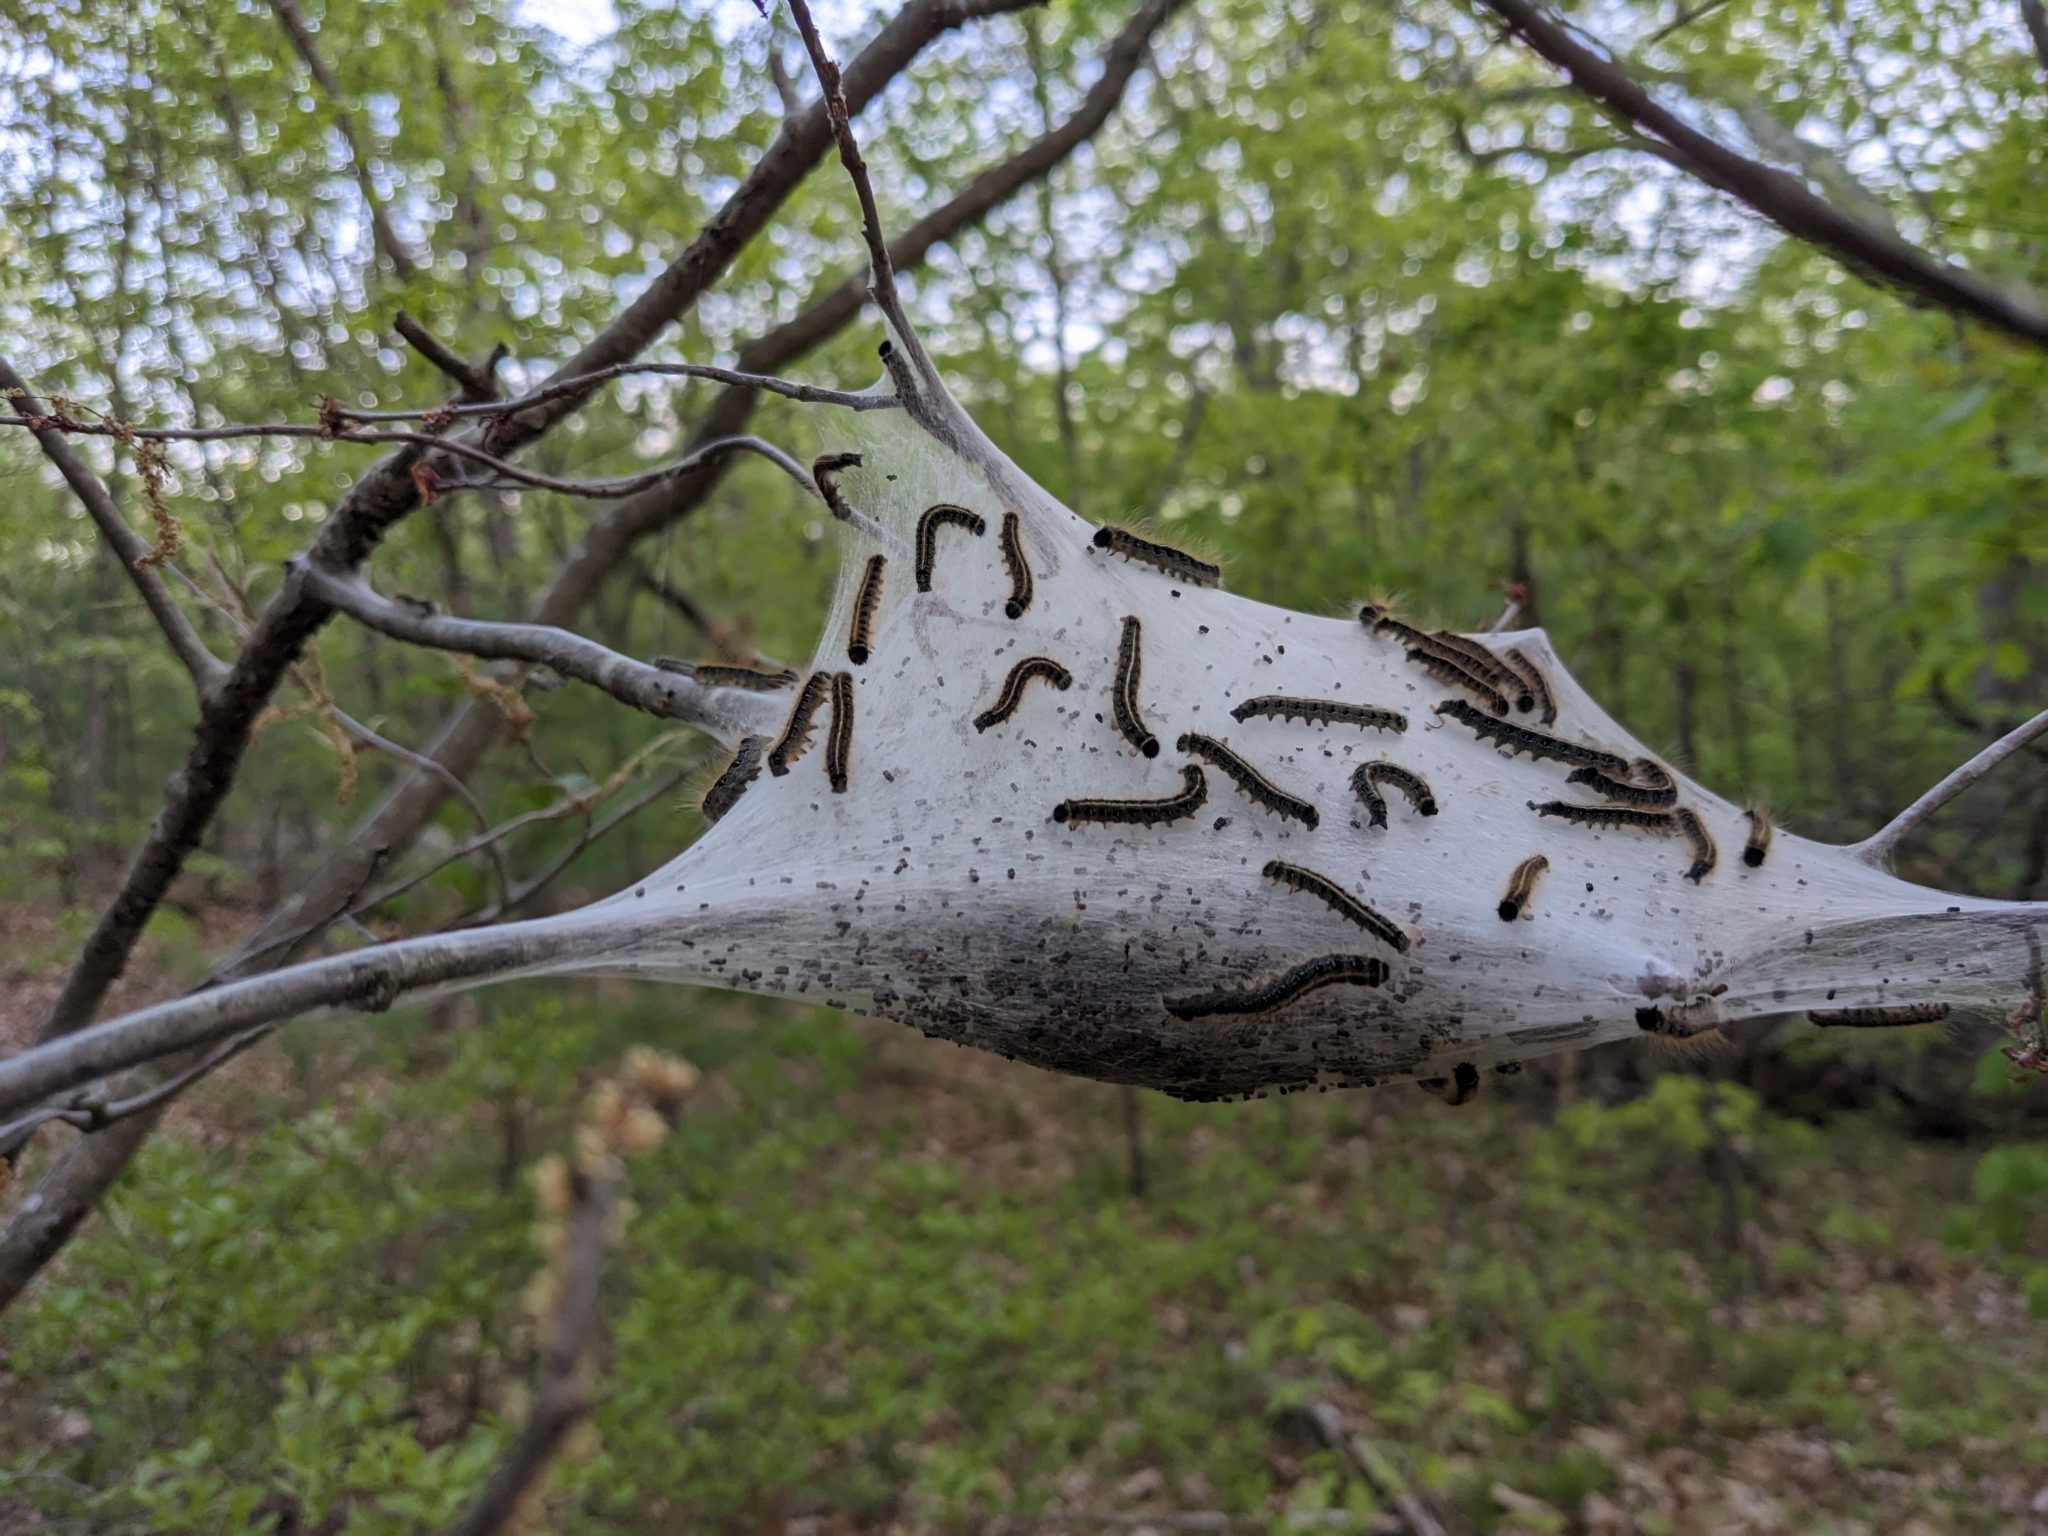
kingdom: Animalia
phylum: Arthropoda
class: Insecta
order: Lepidoptera
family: Lasiocampidae
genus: Malacosoma
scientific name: Malacosoma americana
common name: Eastern tent caterpillar moth
